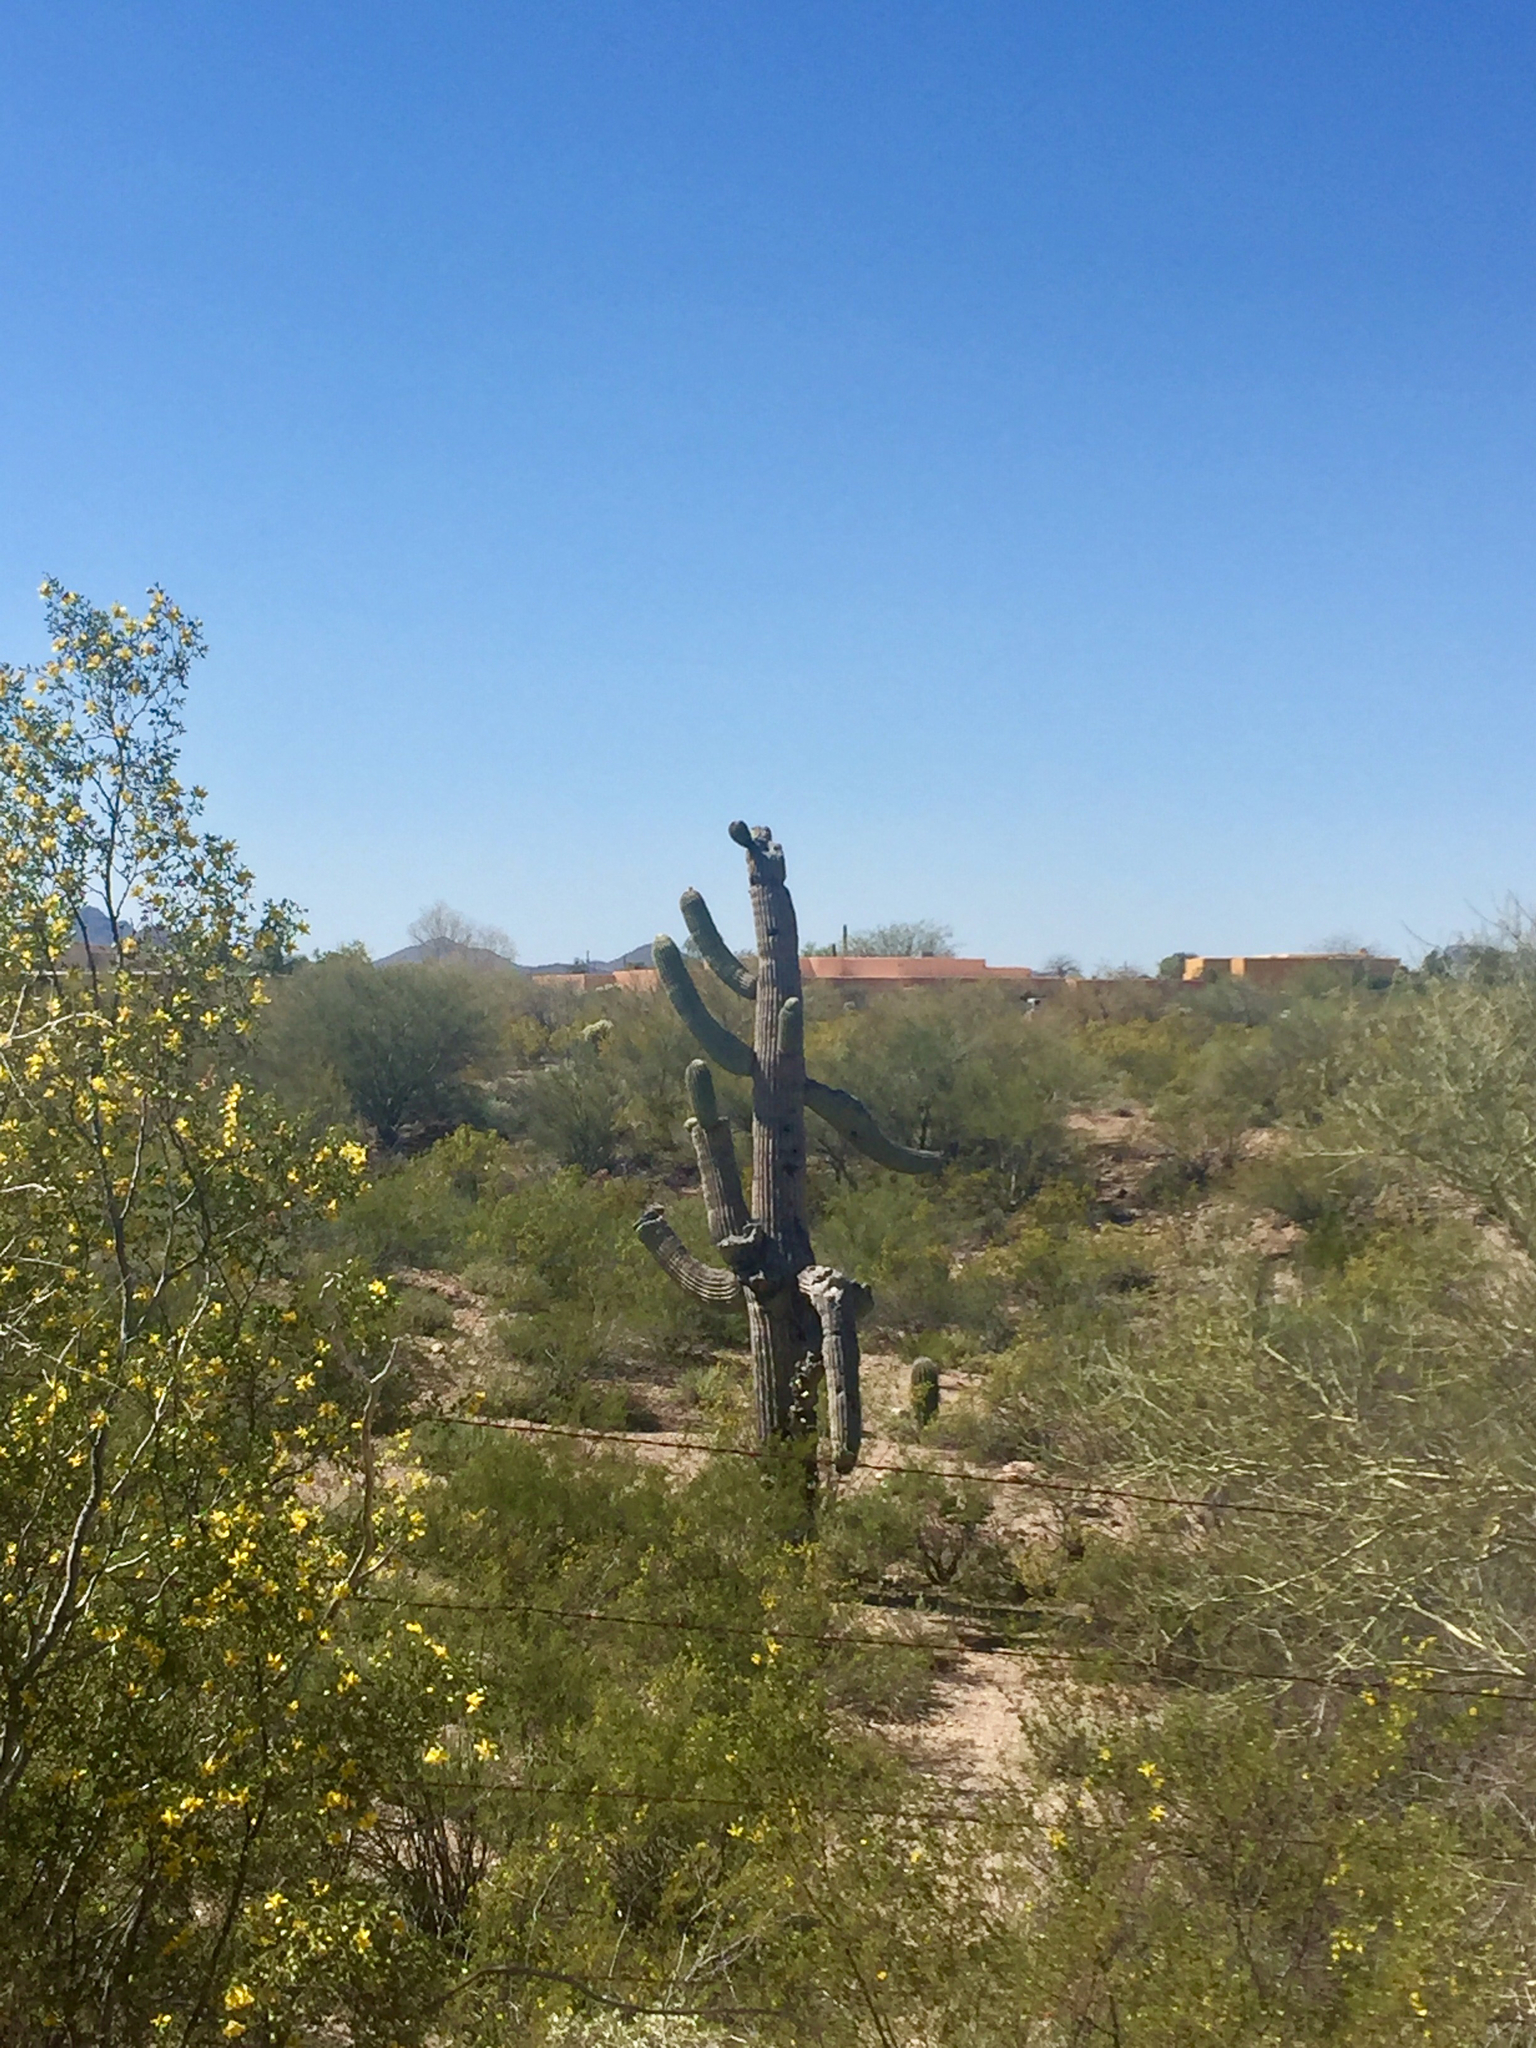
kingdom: Plantae
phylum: Tracheophyta
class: Magnoliopsida
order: Caryophyllales
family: Cactaceae
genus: Carnegiea
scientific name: Carnegiea gigantea
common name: Saguaro
